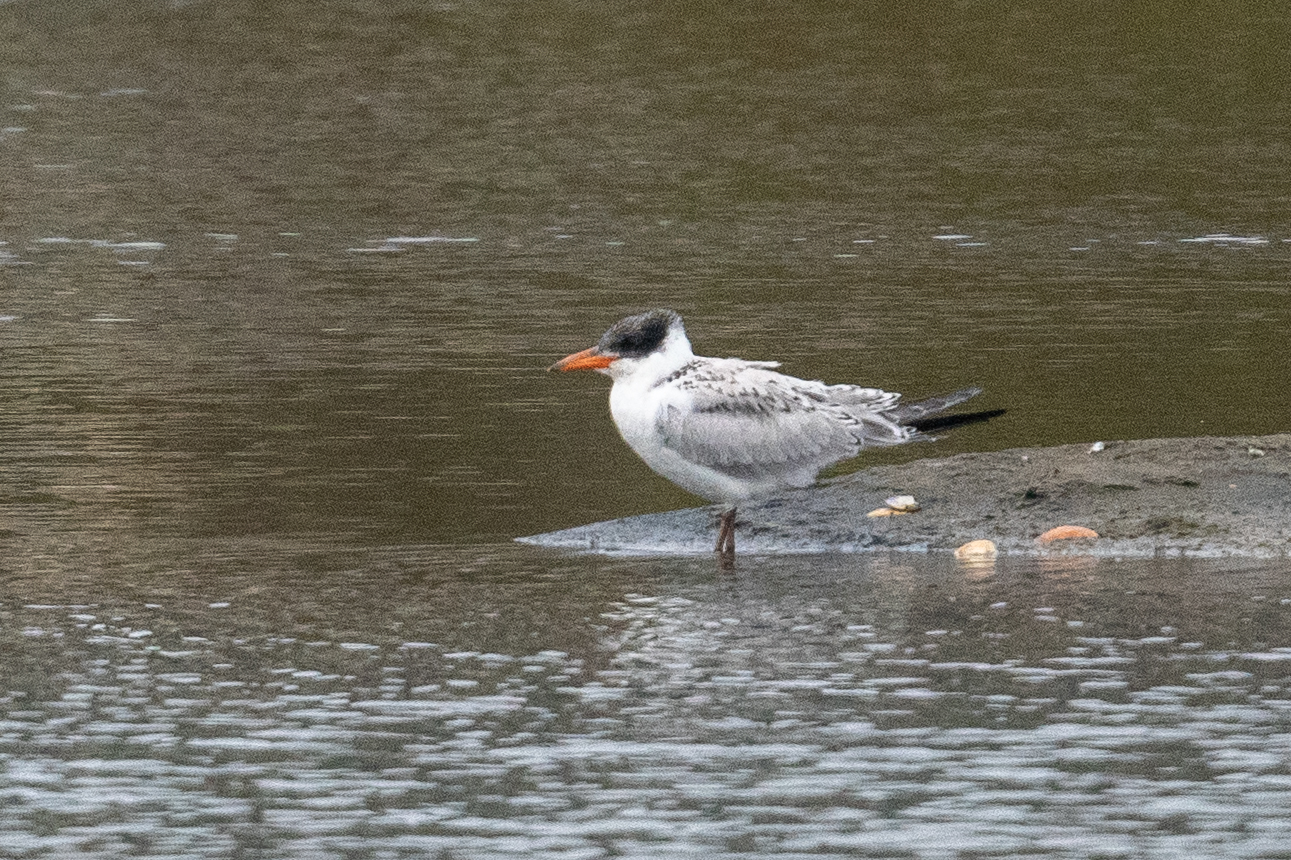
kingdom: Animalia
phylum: Chordata
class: Aves
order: Charadriiformes
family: Laridae
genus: Hydroprogne
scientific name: Hydroprogne caspia
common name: Caspian tern
